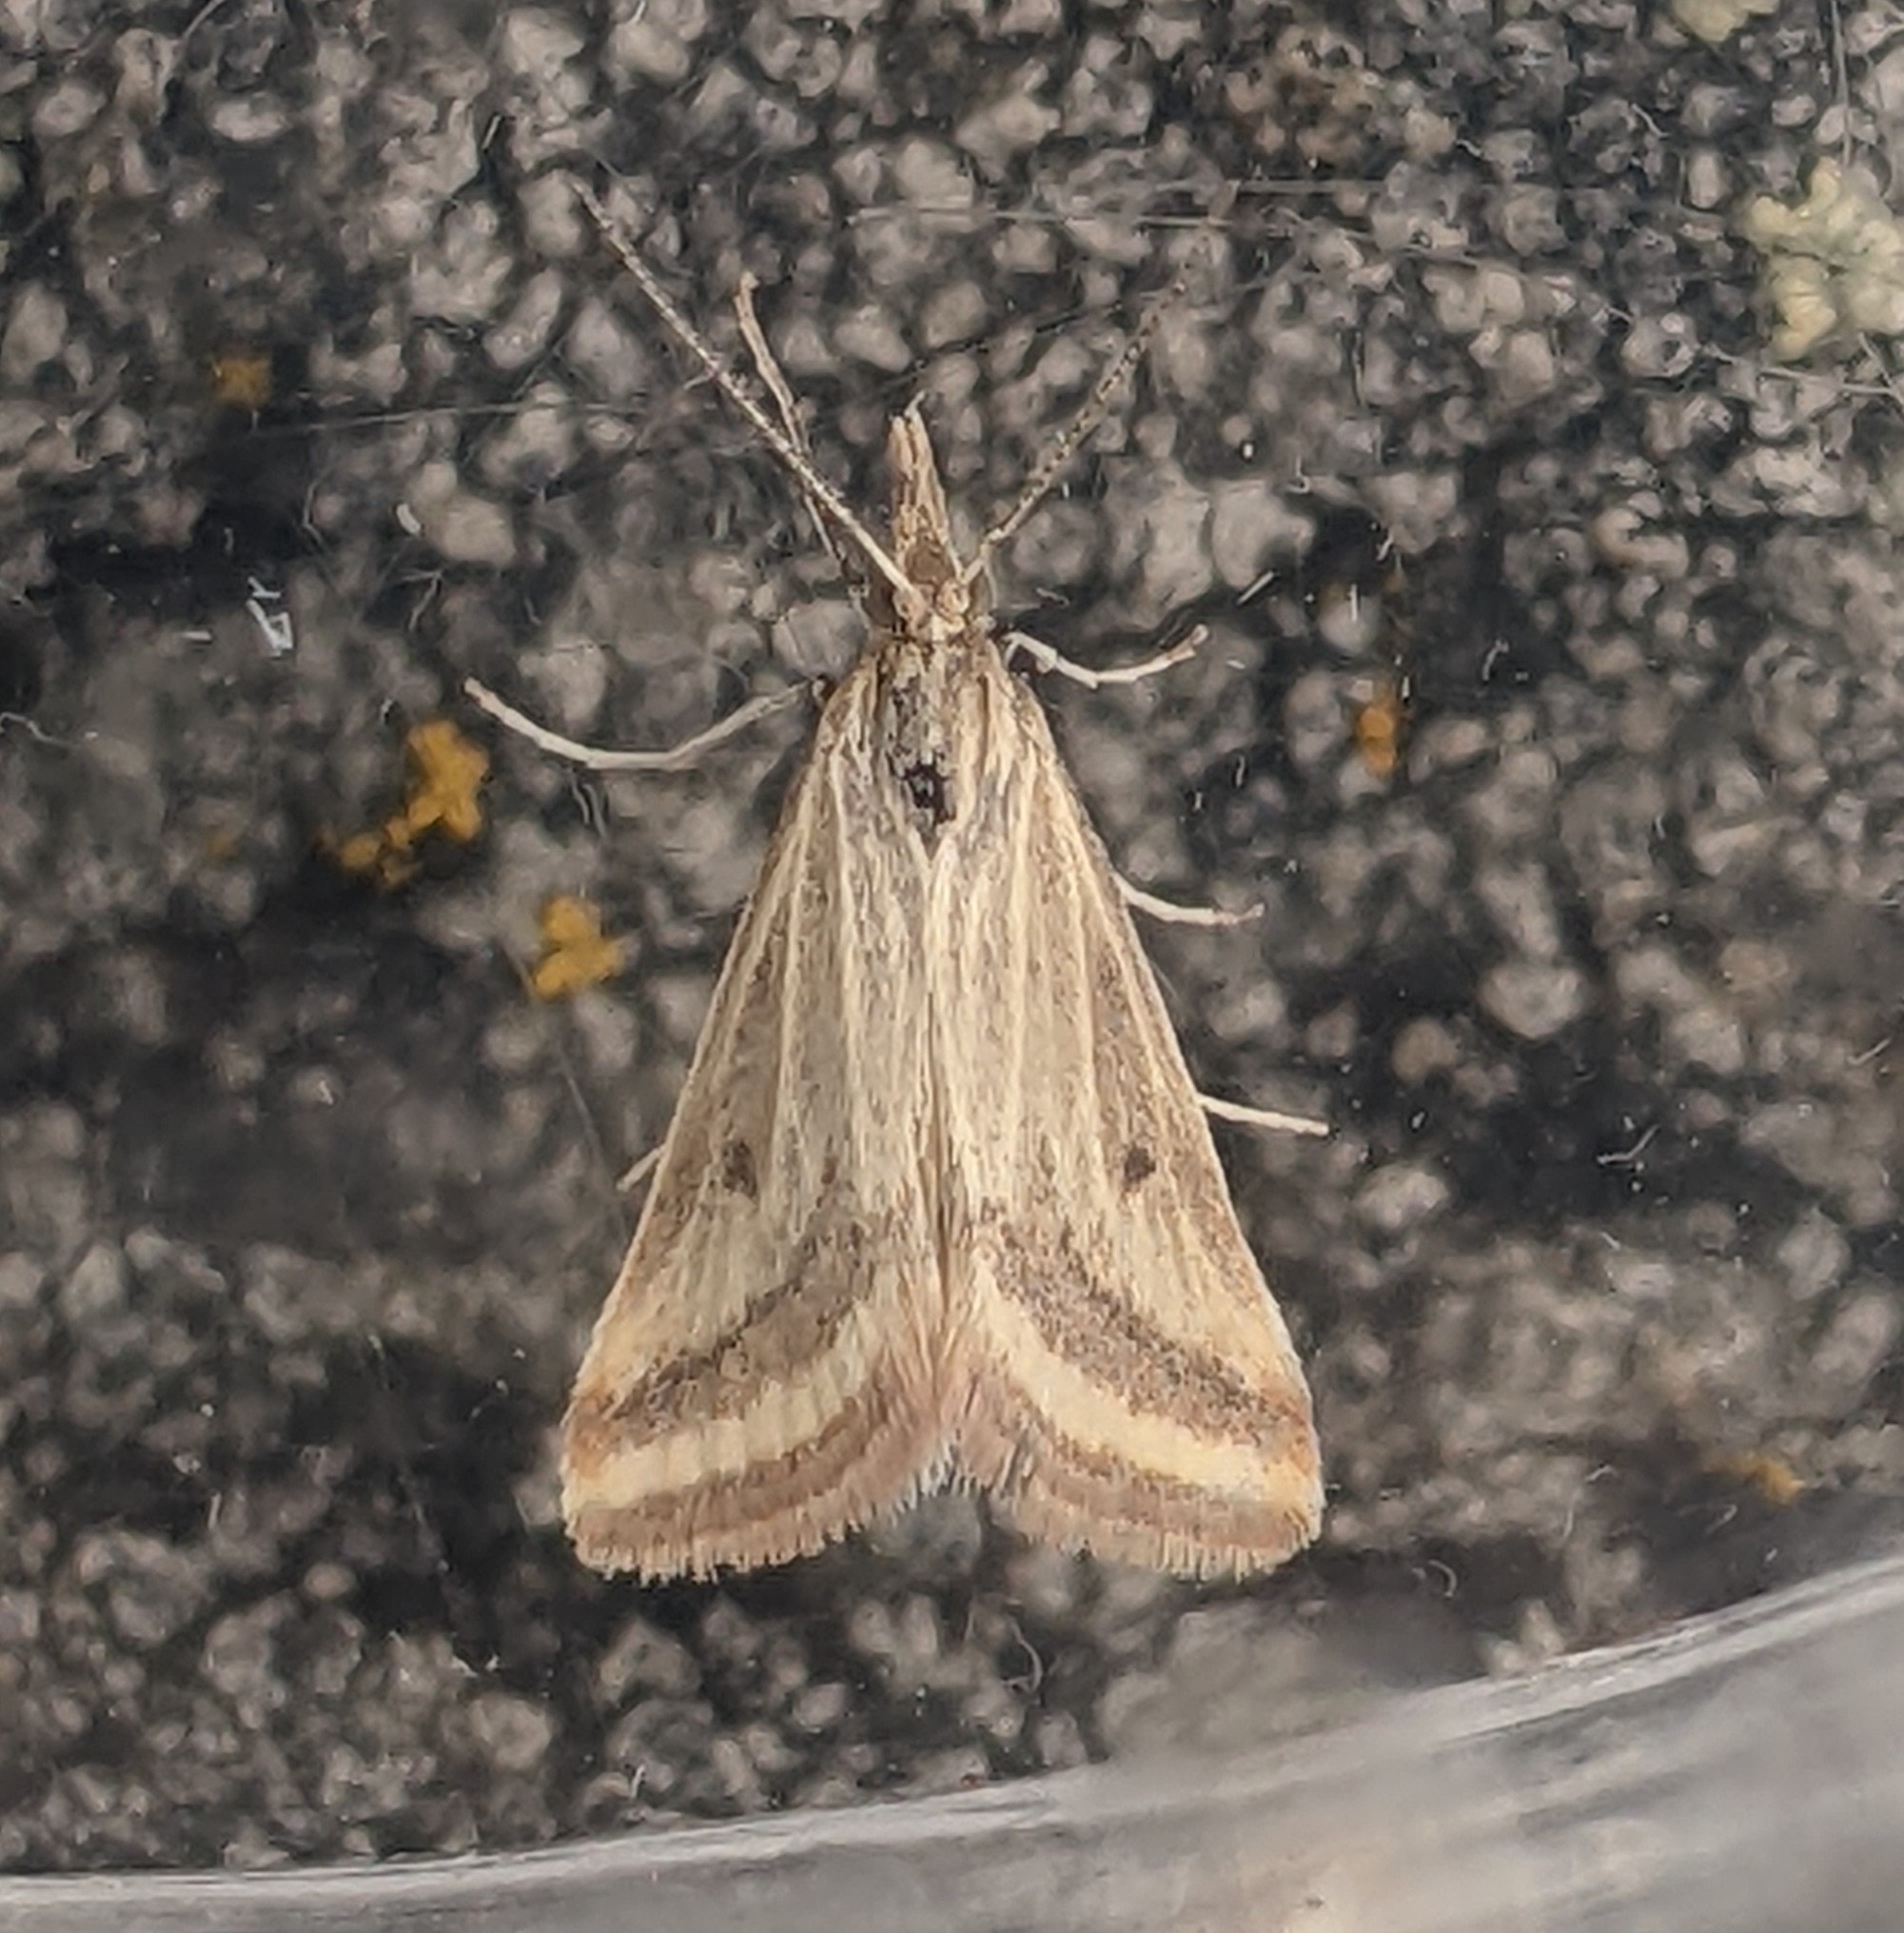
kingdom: Animalia
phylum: Arthropoda
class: Insecta
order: Lepidoptera
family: Crambidae
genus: Microtheoris
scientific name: Microtheoris ophionalis
